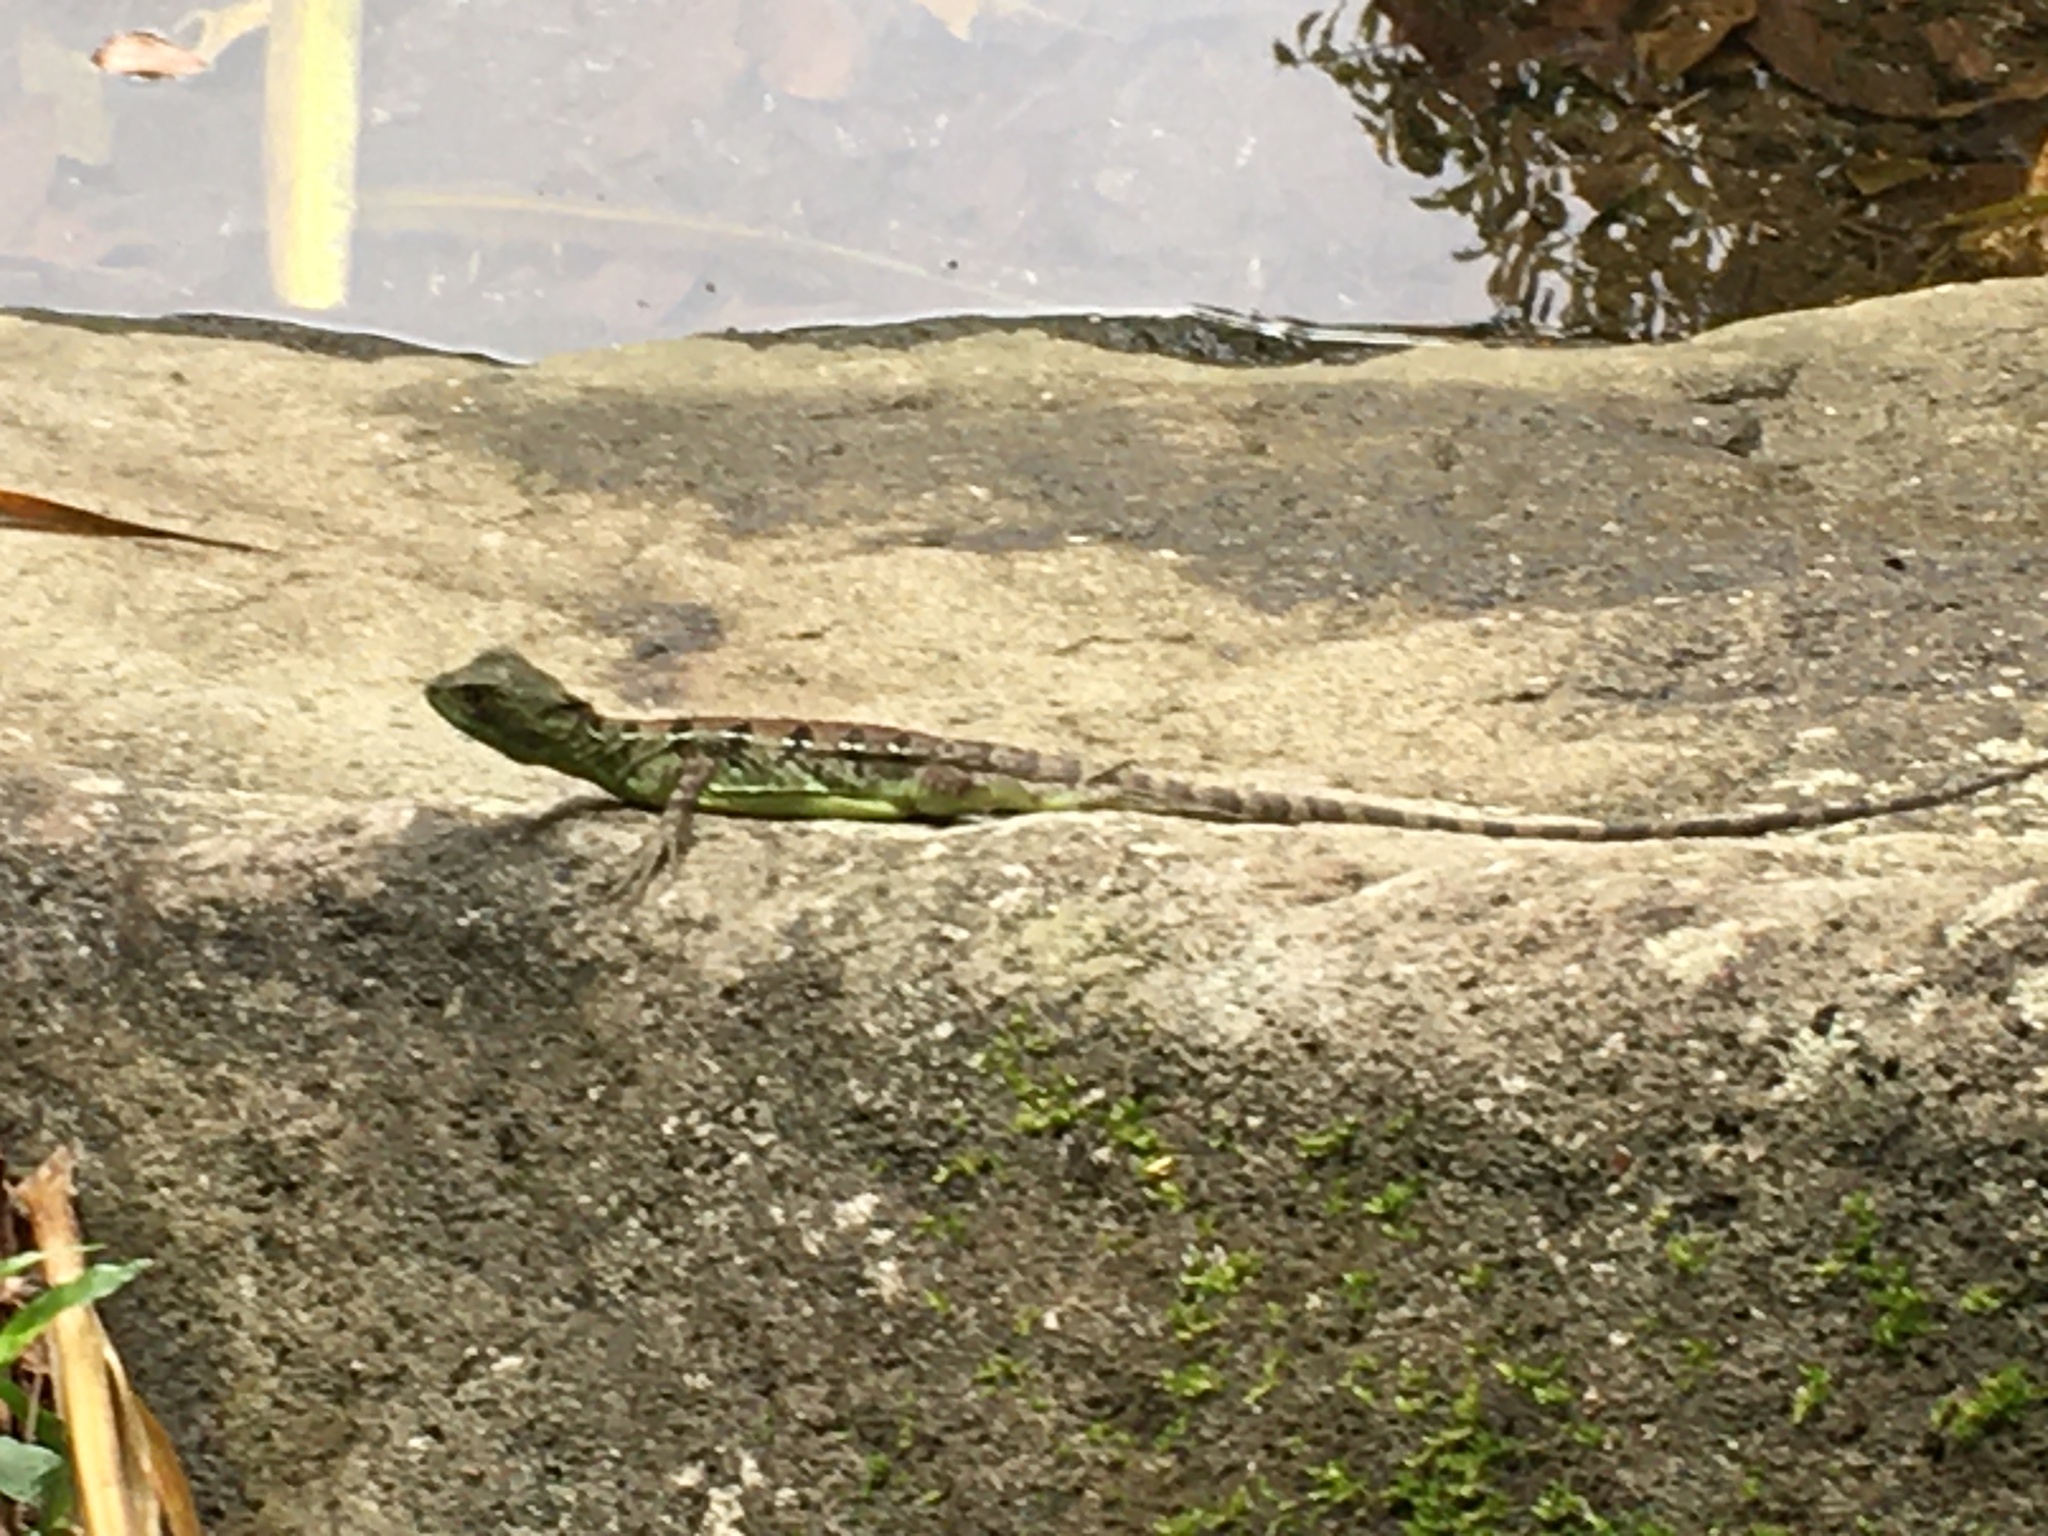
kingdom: Animalia
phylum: Chordata
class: Squamata
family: Corytophanidae
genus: Basiliscus
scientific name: Basiliscus plumifrons
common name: Green basilisk
